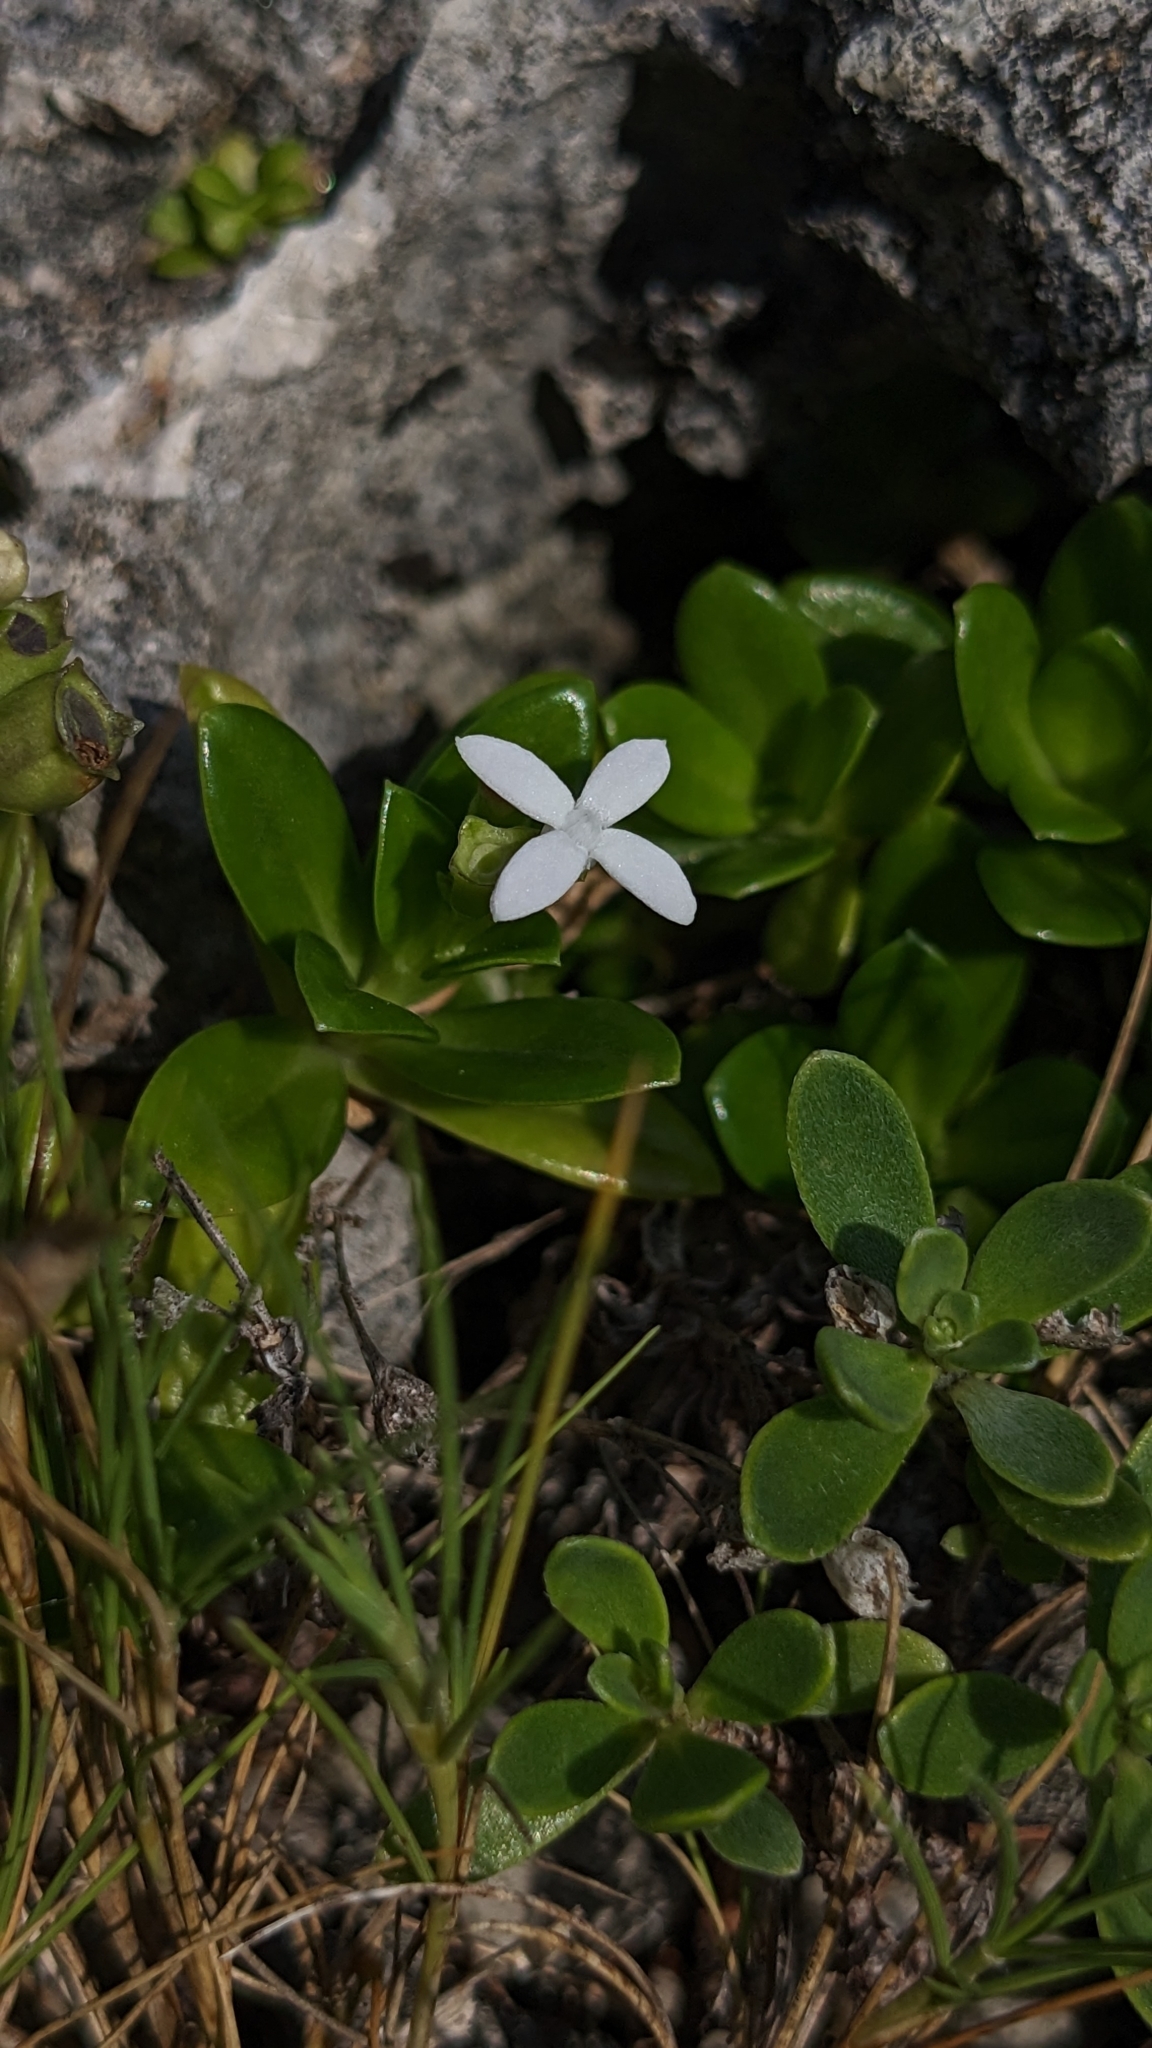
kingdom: Plantae
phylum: Tracheophyta
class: Magnoliopsida
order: Gentianales
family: Rubiaceae
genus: Leptopetalum
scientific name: Leptopetalum strigulosum
